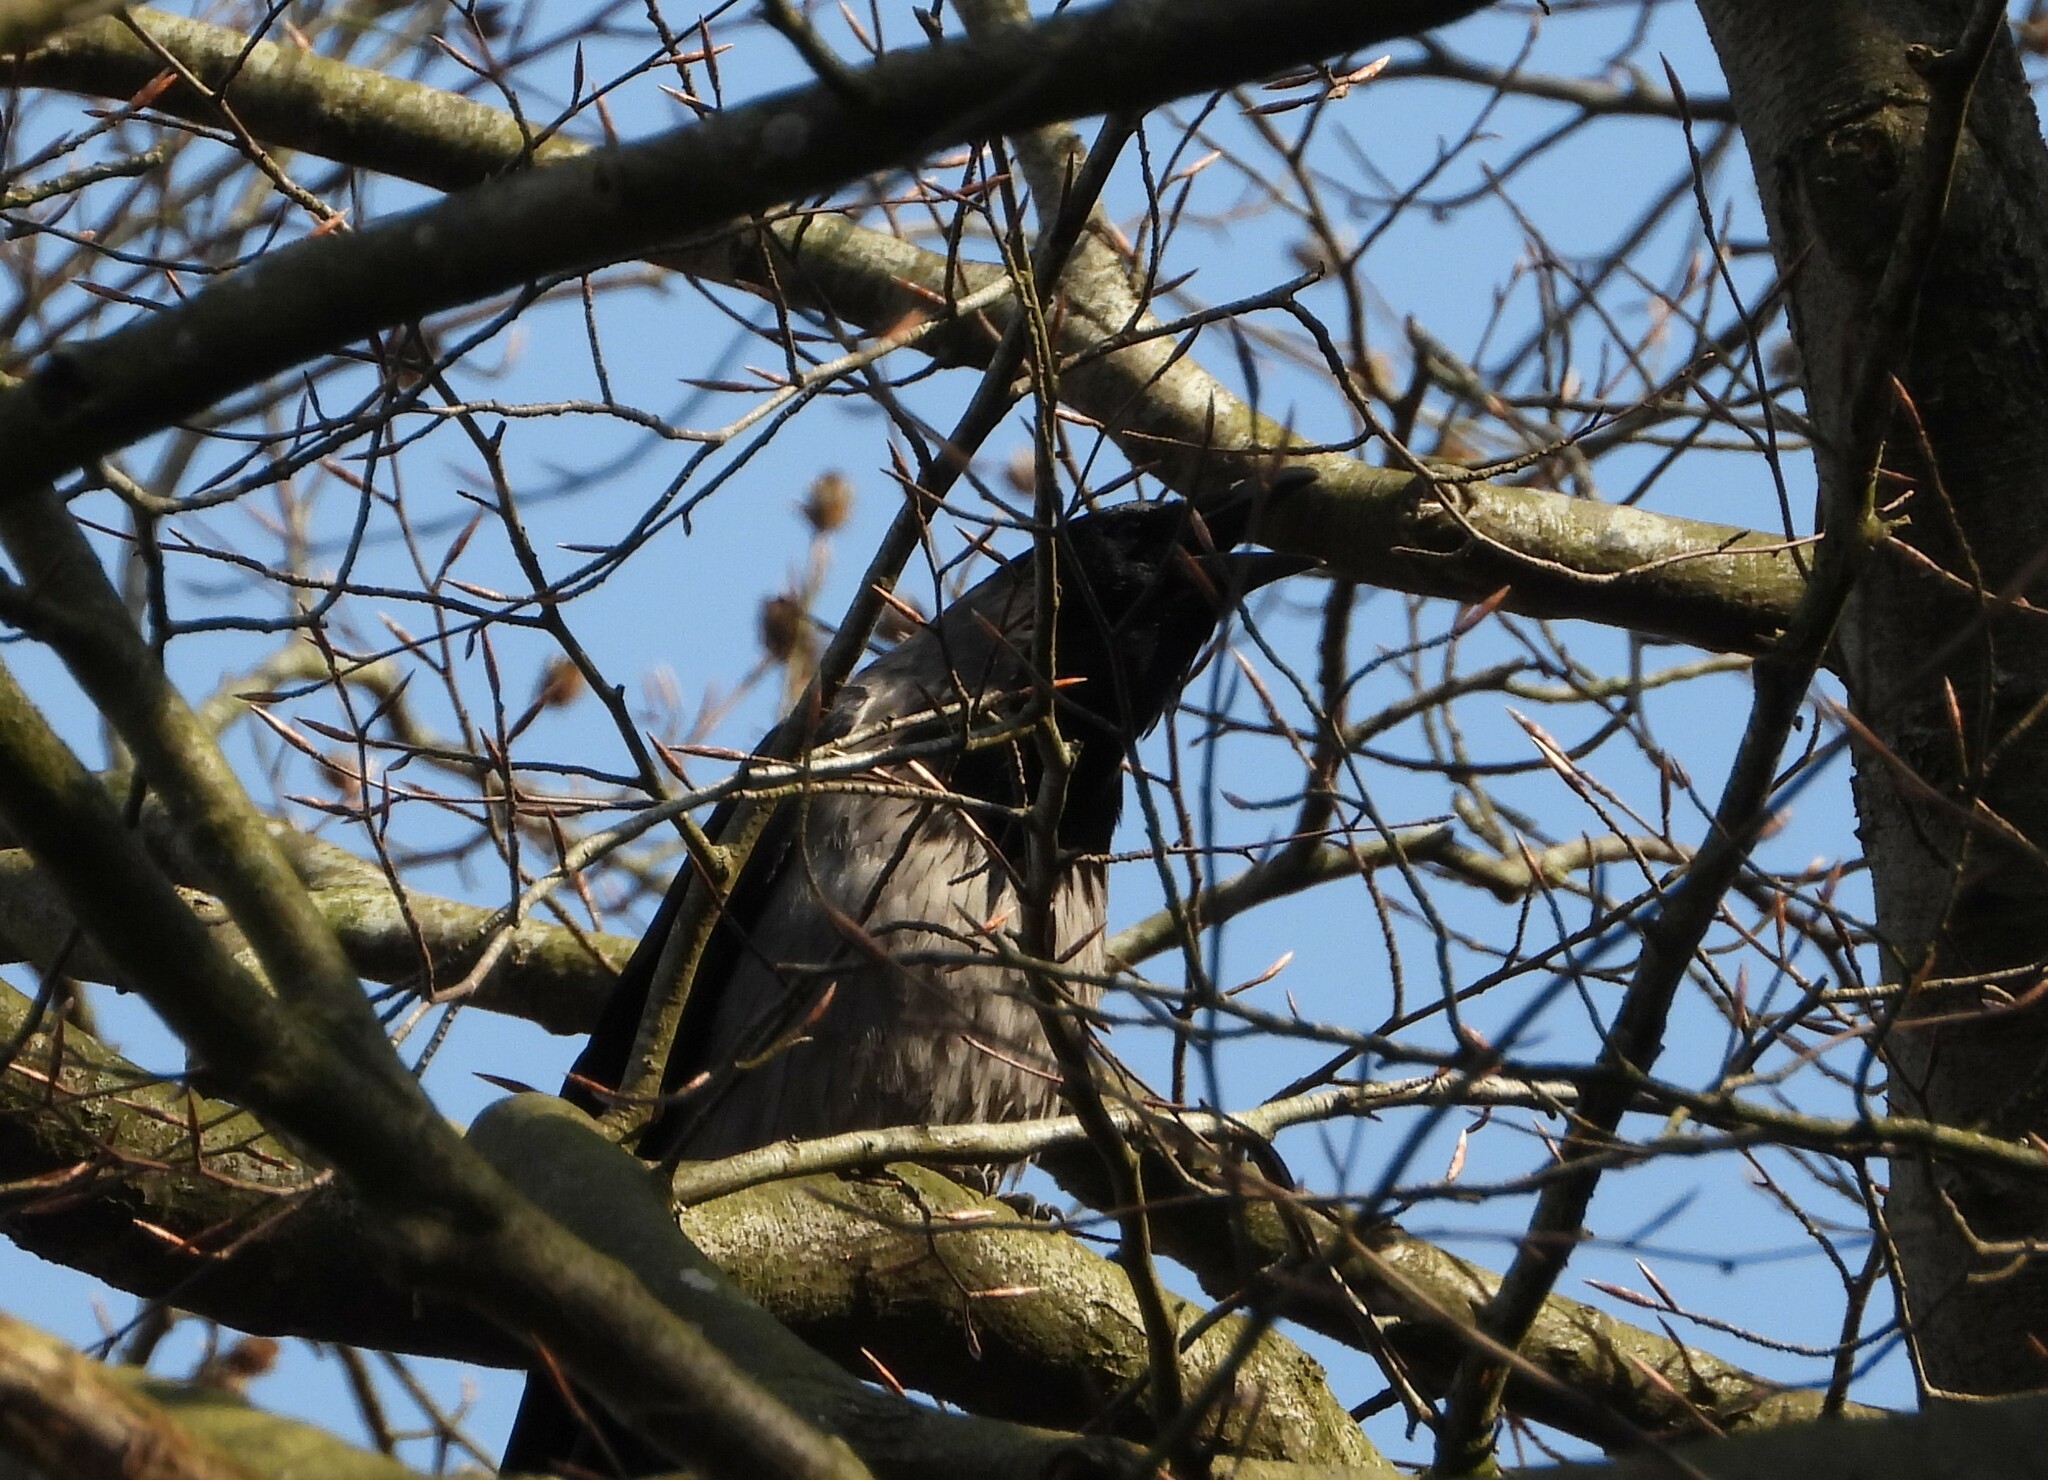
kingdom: Animalia
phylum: Chordata
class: Aves
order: Passeriformes
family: Corvidae
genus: Corvus
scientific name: Corvus cornix
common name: Hooded crow
